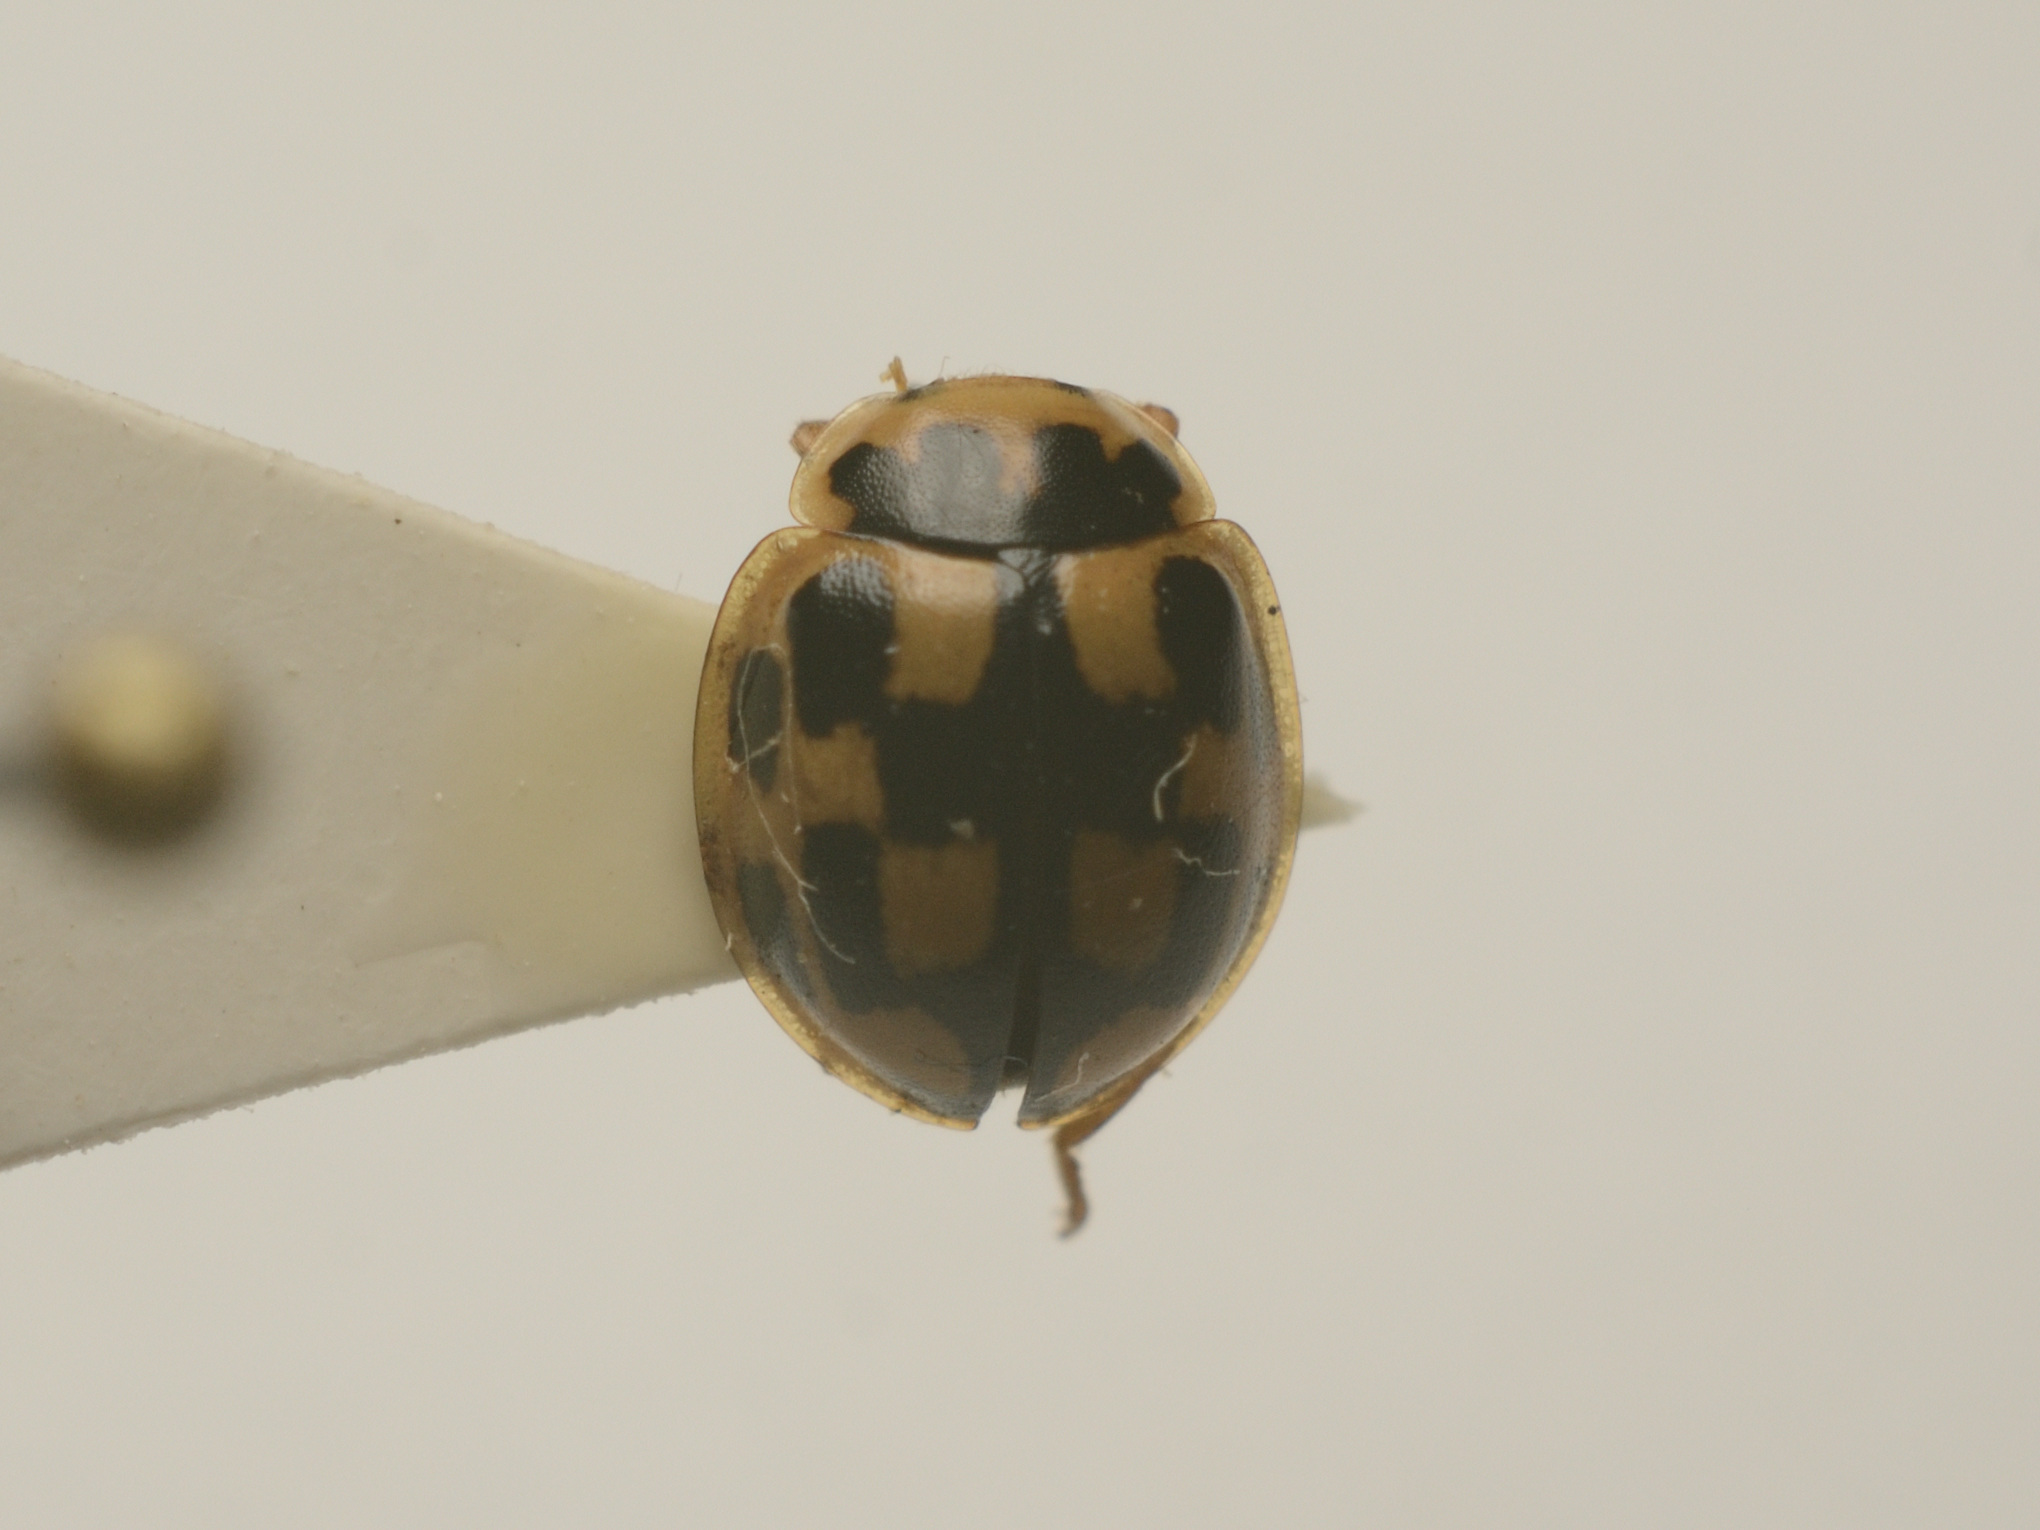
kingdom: Animalia
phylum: Arthropoda
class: Insecta
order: Coleoptera
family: Coccinellidae
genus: Propylaea
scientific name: Propylaea quatuordecimpunctata
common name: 14-spotted ladybird beetle
